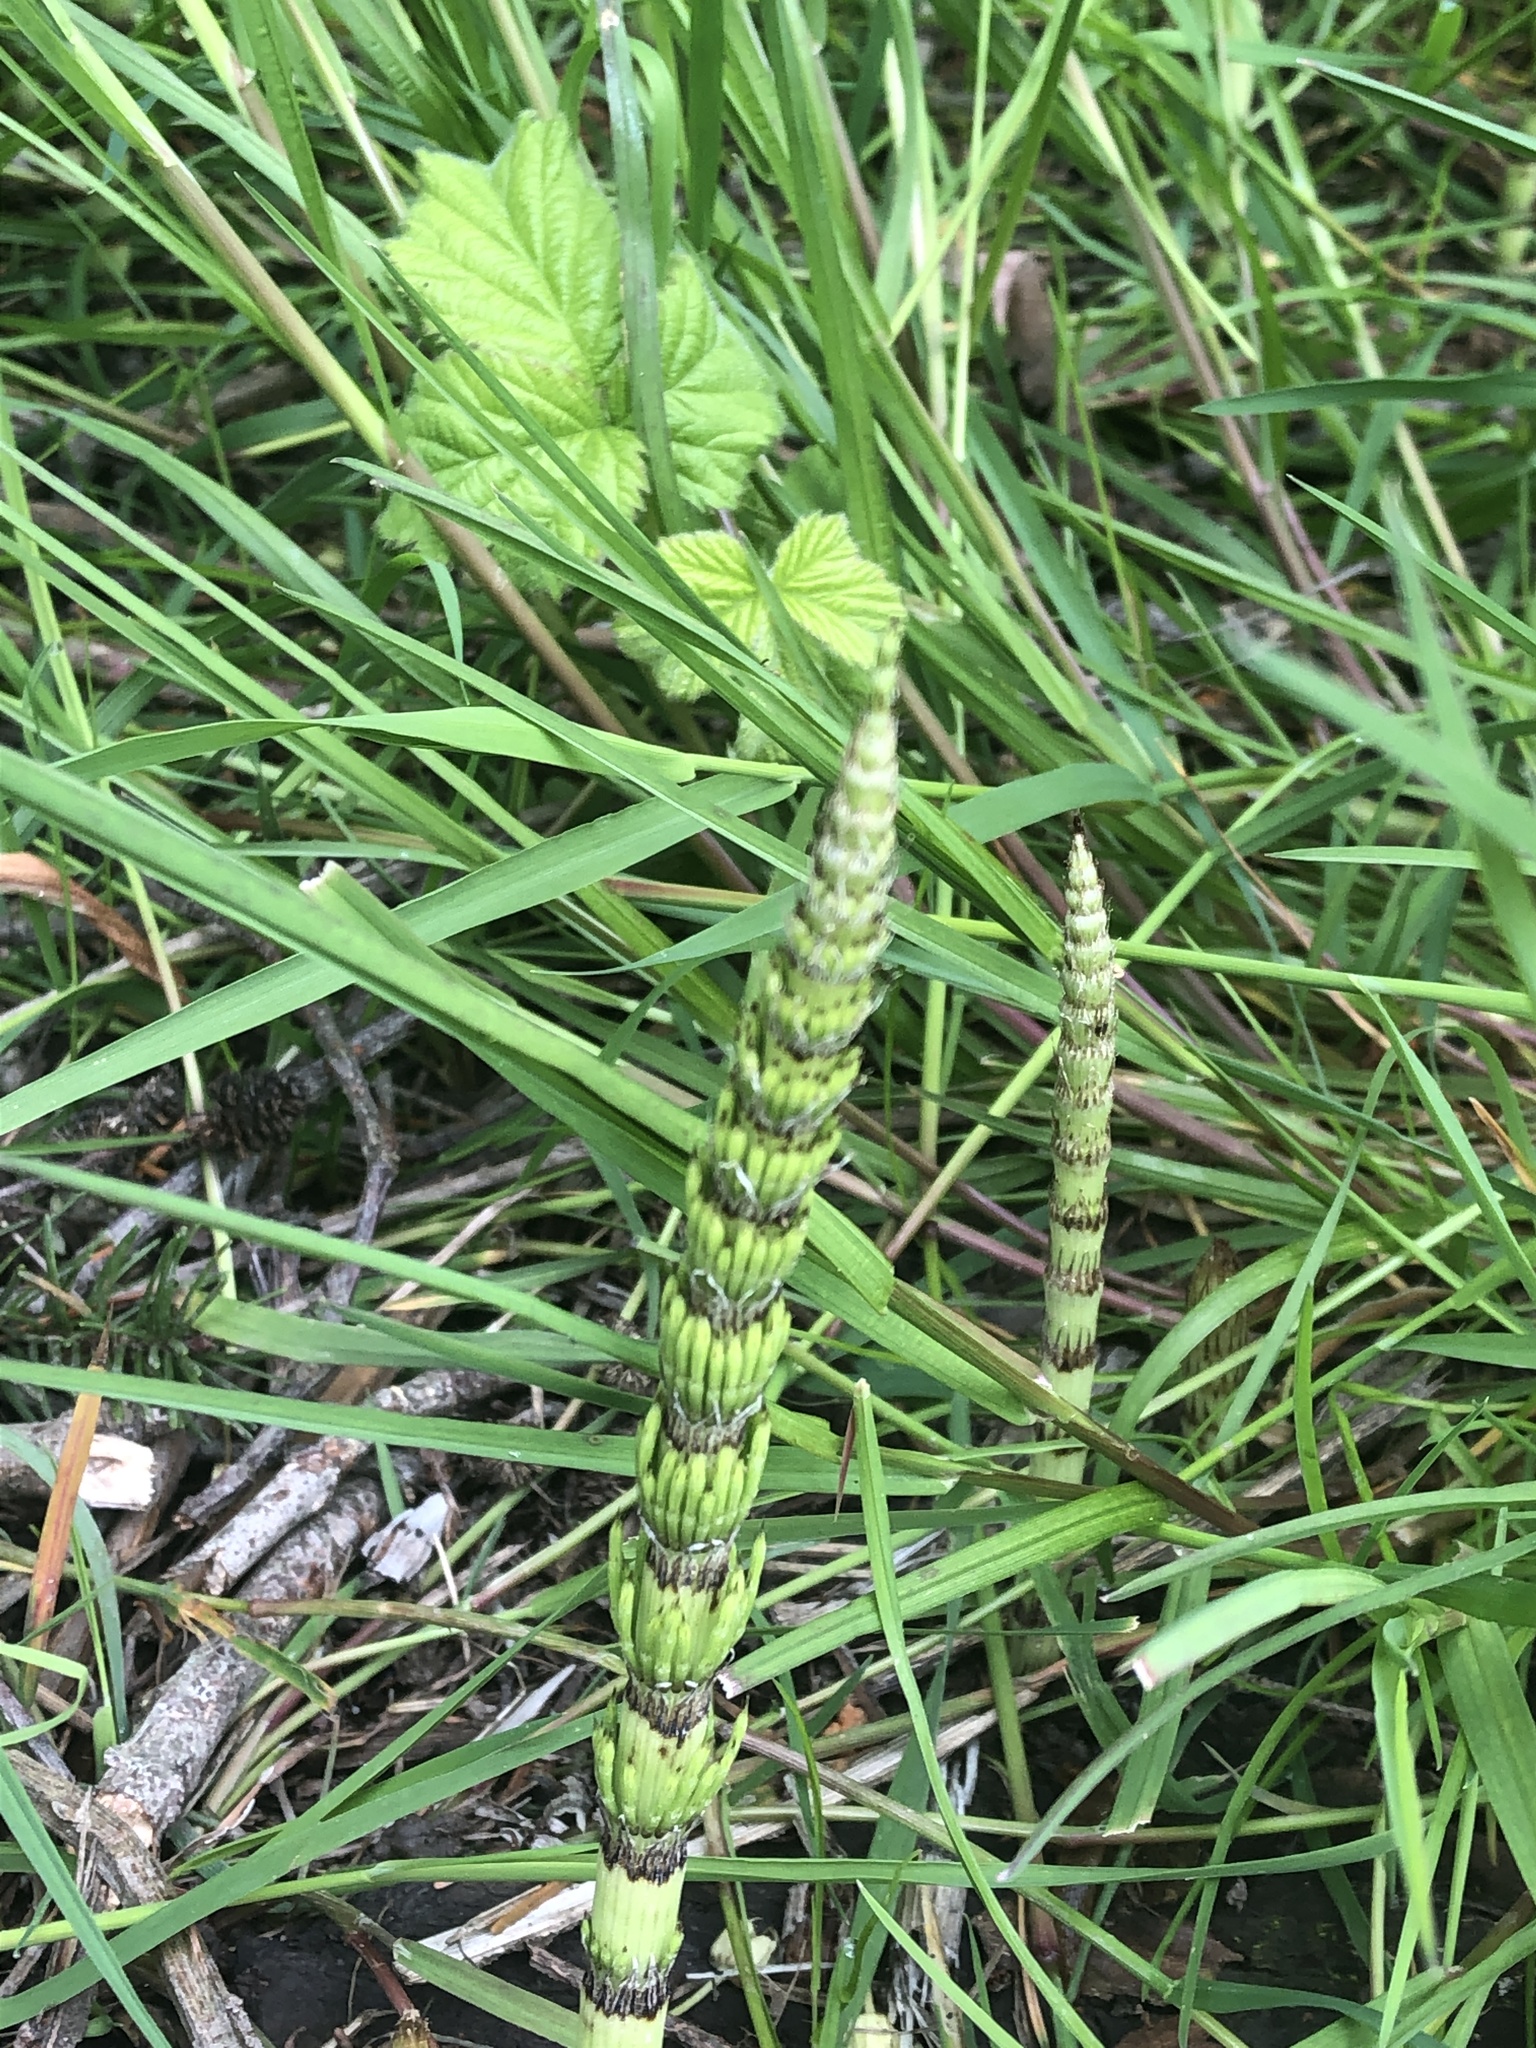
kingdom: Plantae
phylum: Tracheophyta
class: Polypodiopsida
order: Equisetales
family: Equisetaceae
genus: Equisetum
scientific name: Equisetum telmateia
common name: Great horsetail
